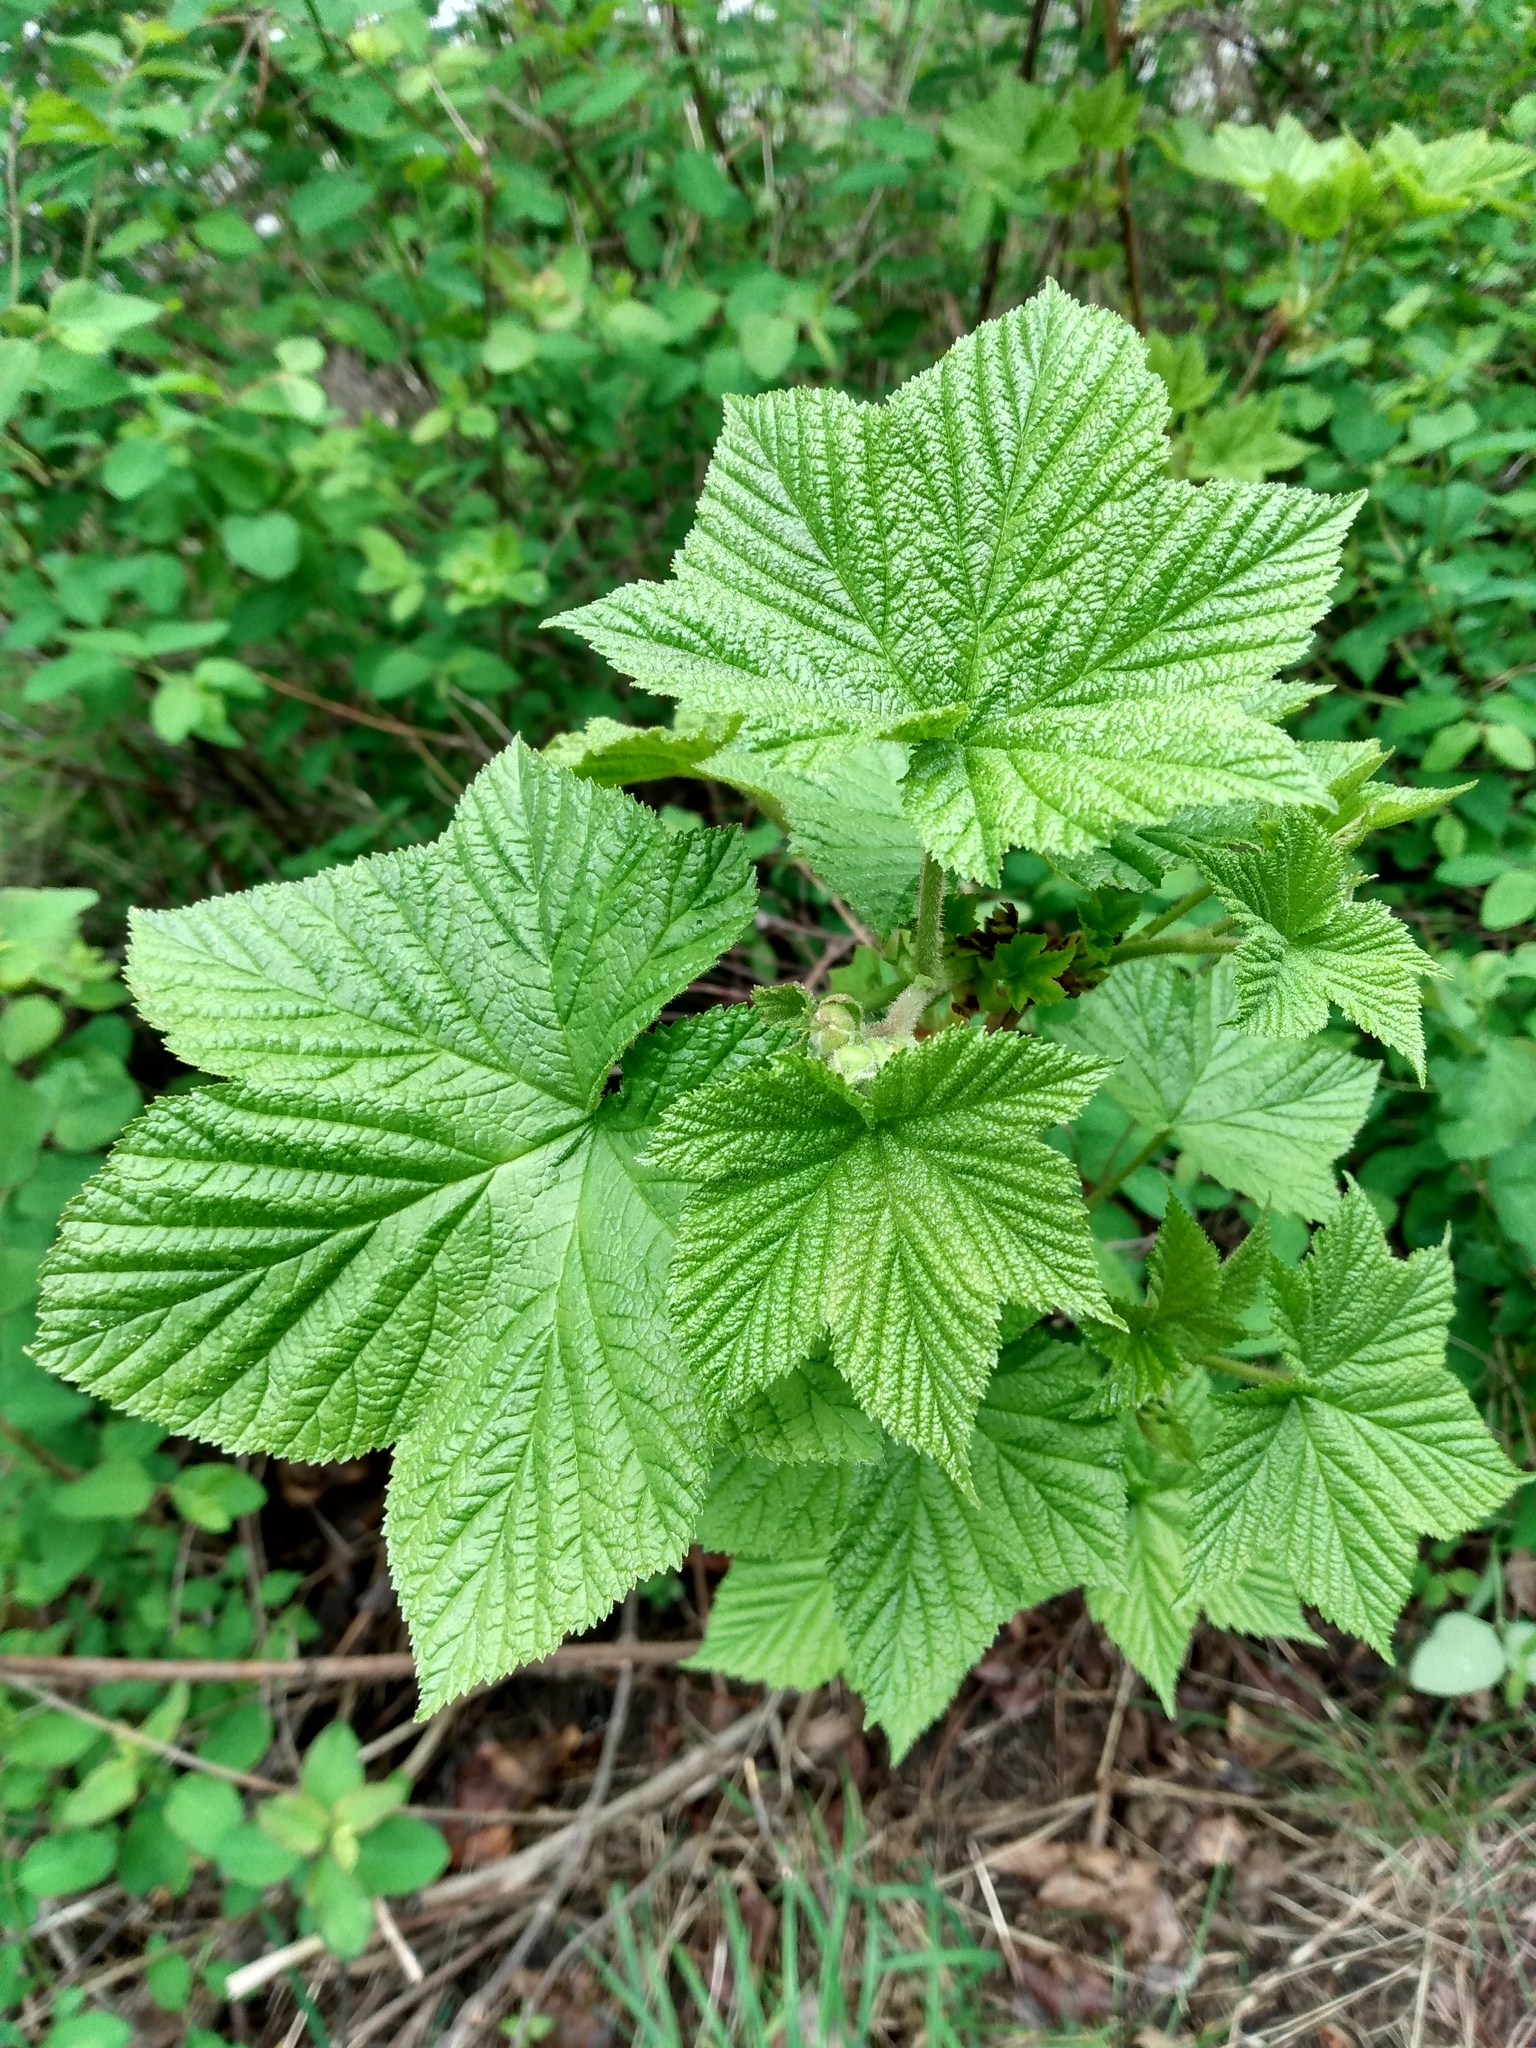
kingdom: Plantae
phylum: Tracheophyta
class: Magnoliopsida
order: Rosales
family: Rosaceae
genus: Rubus
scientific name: Rubus parviflorus
